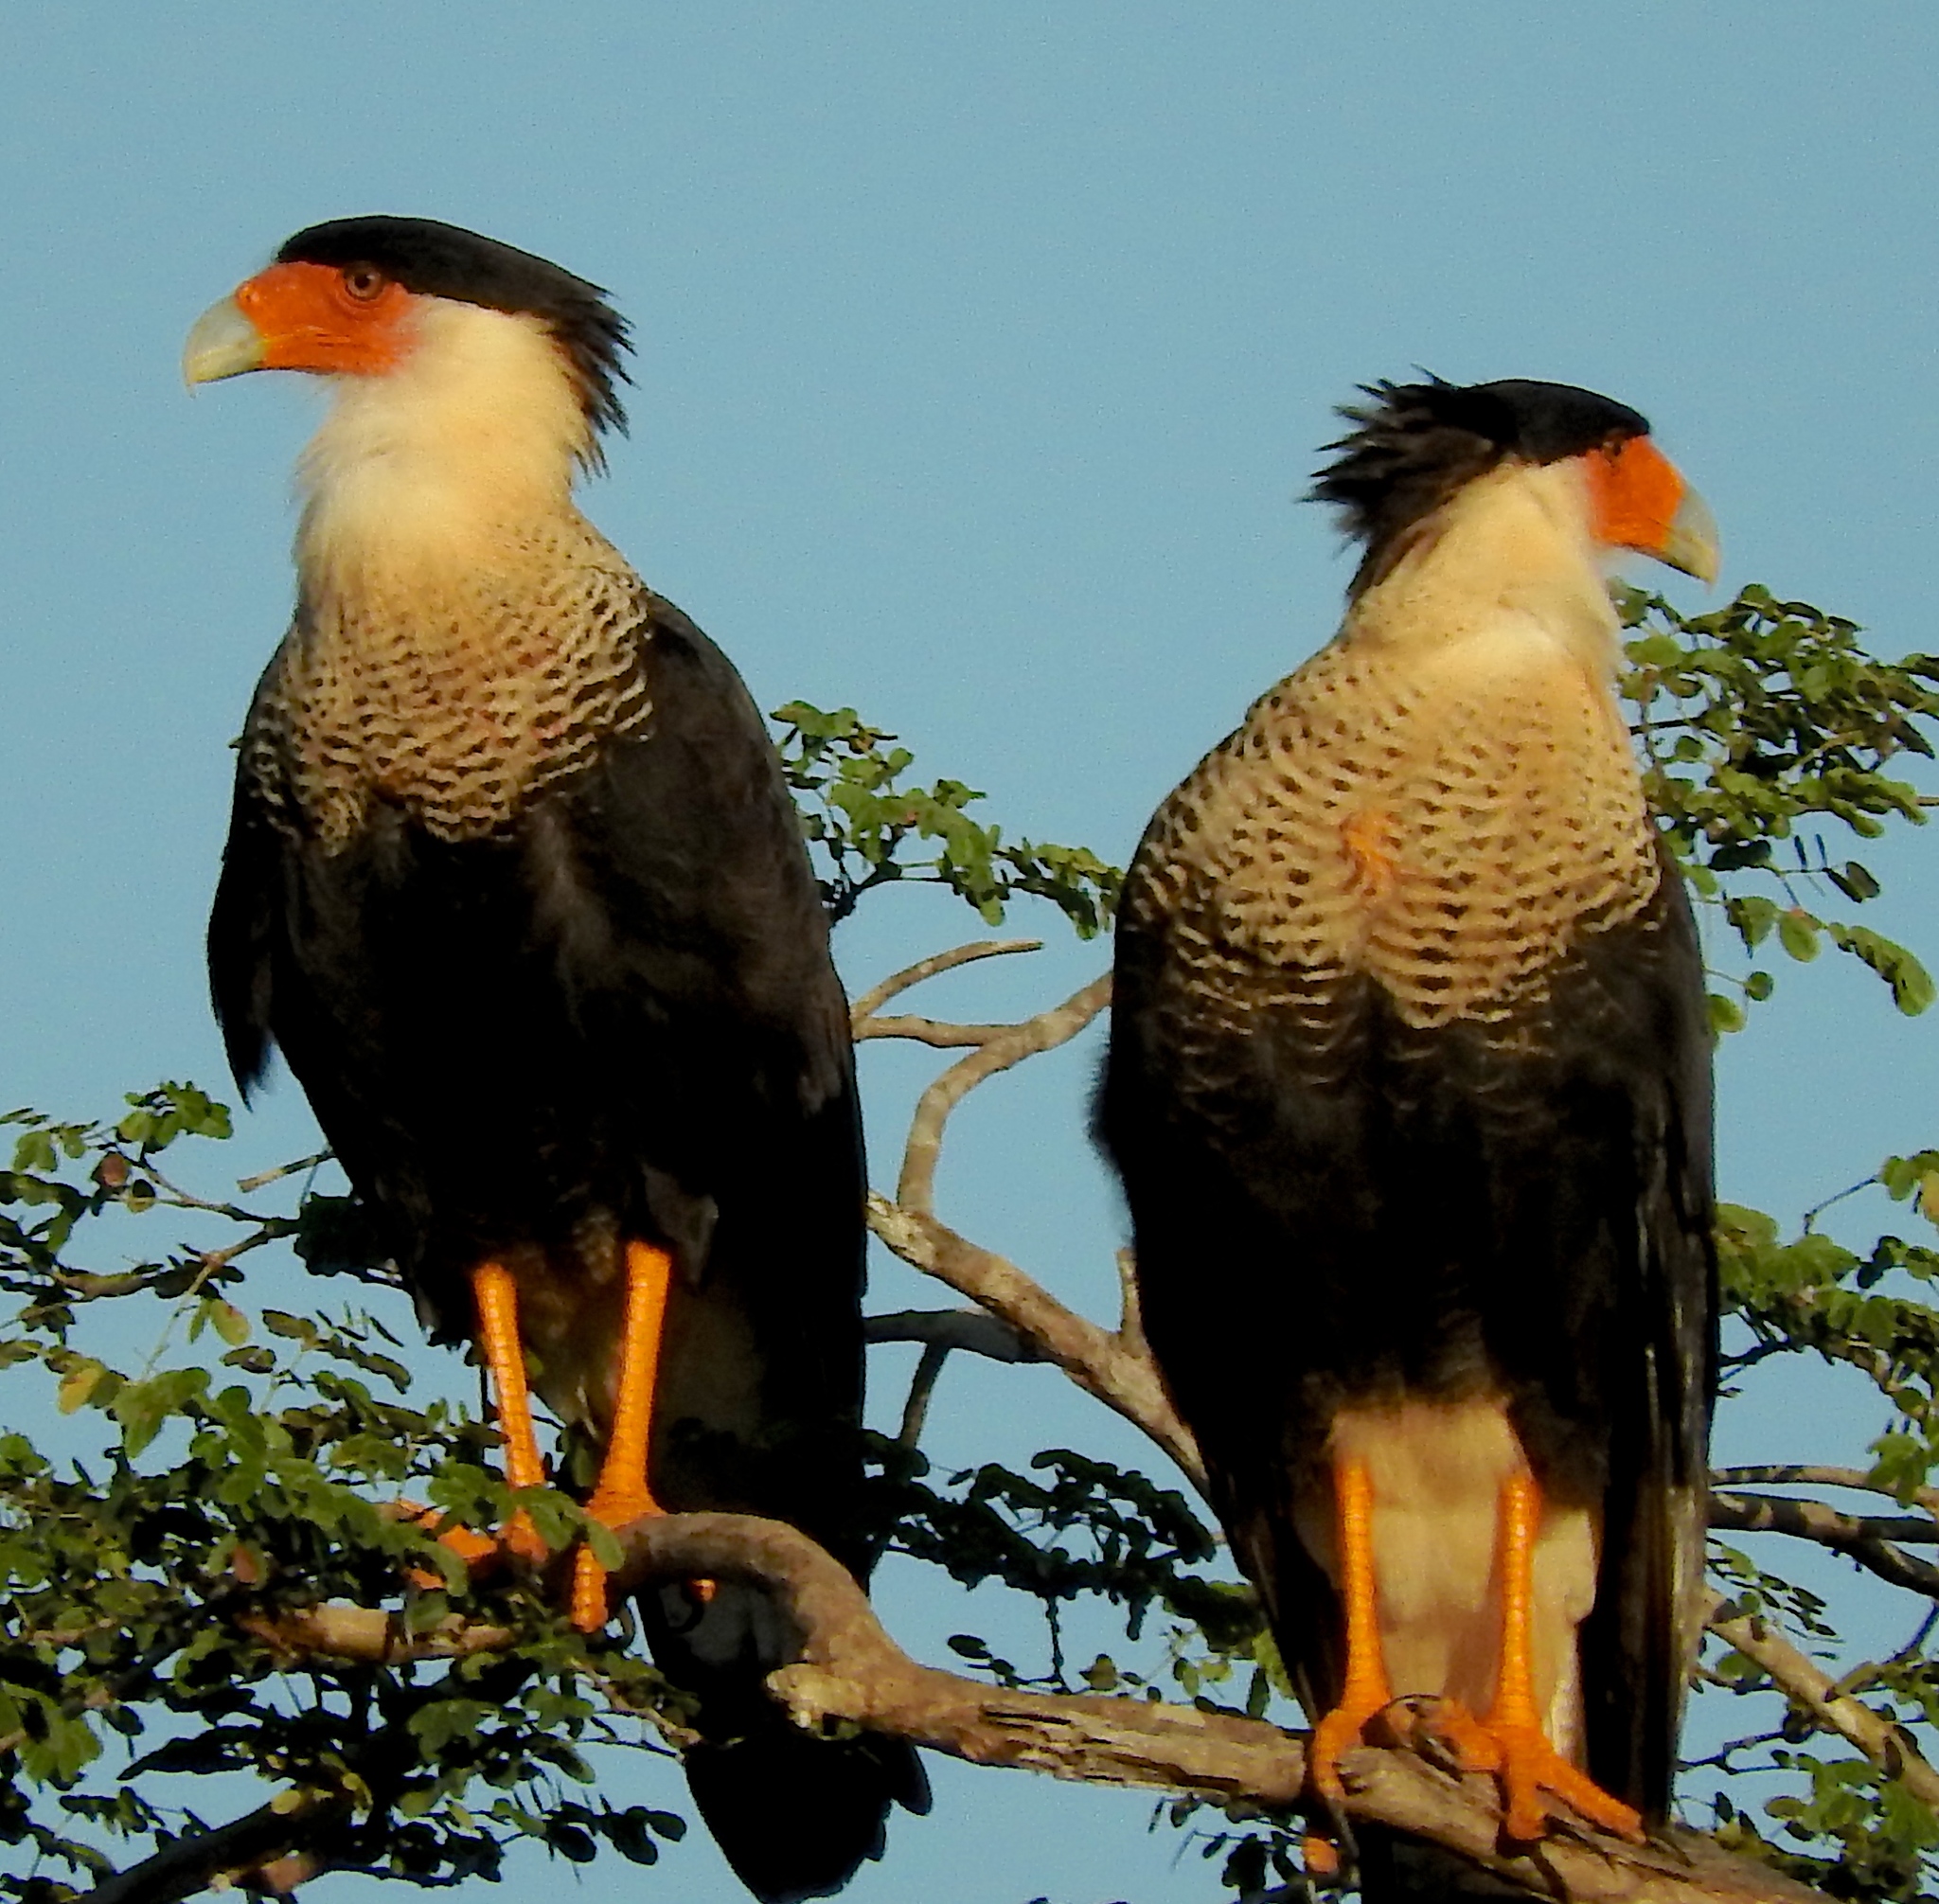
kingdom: Animalia
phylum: Chordata
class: Aves
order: Falconiformes
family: Falconidae
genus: Caracara
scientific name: Caracara plancus
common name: Southern caracara
